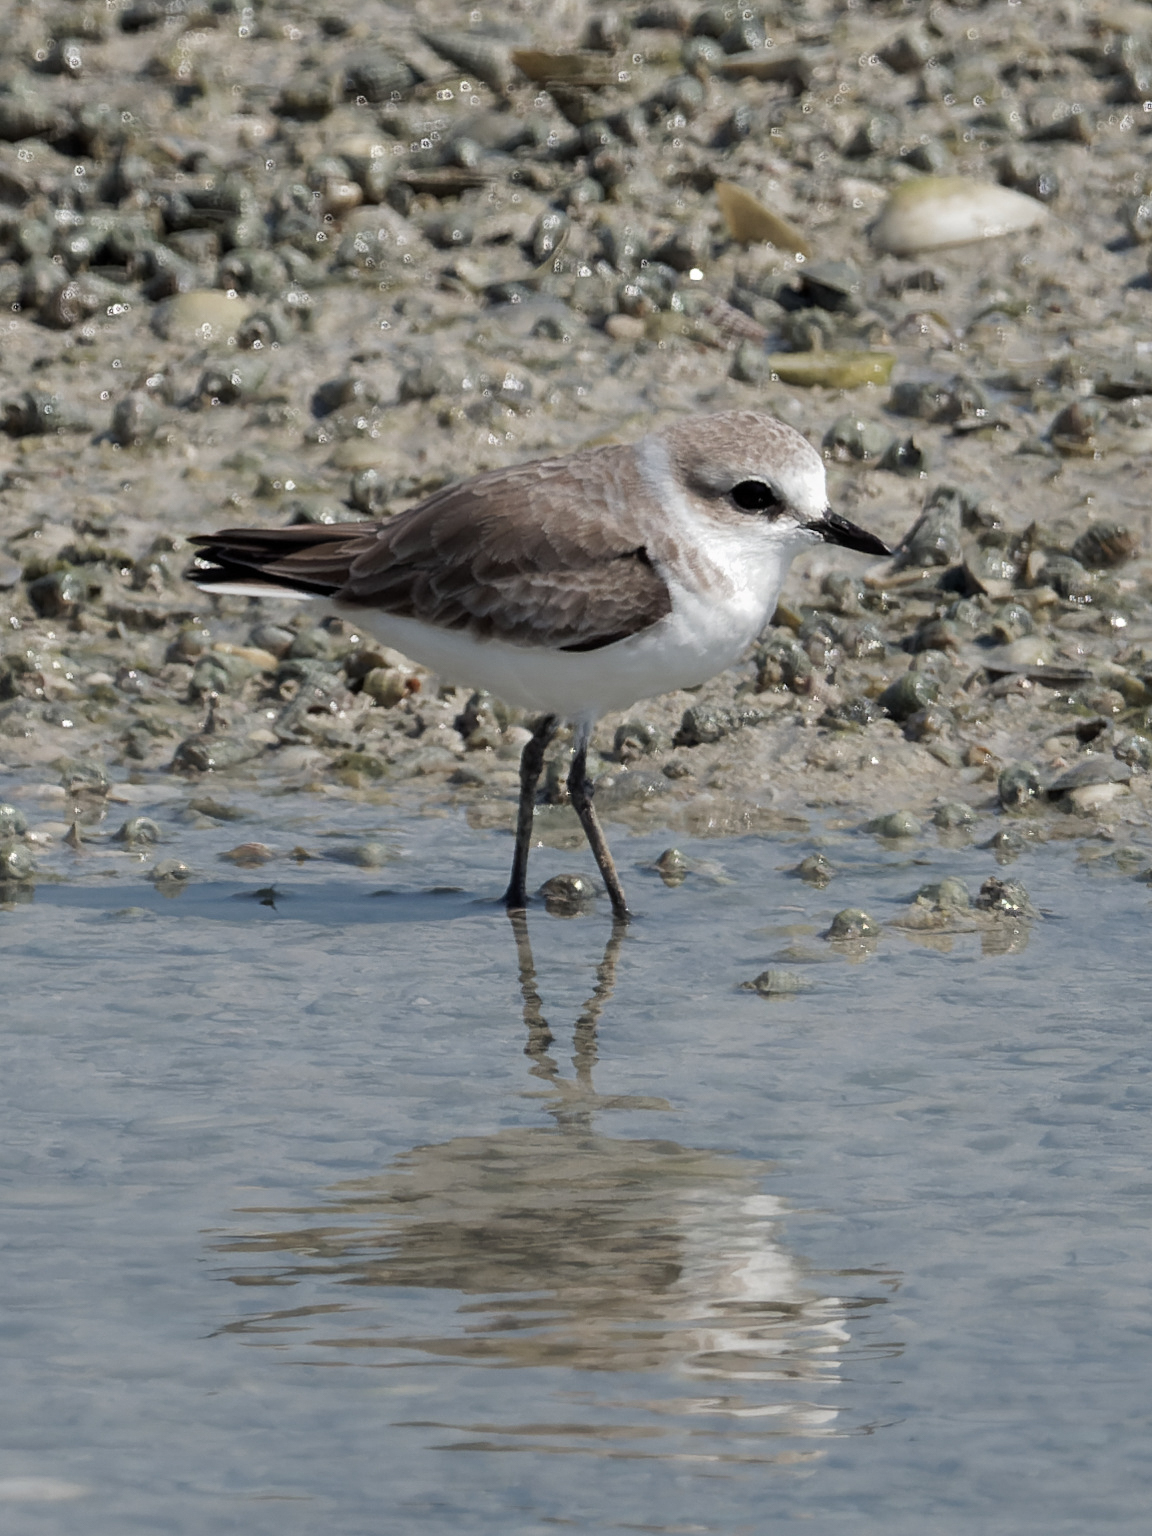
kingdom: Animalia
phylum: Chordata
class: Aves
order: Charadriiformes
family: Charadriidae
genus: Charadrius
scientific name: Charadrius alexandrinus
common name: Kentish plover
